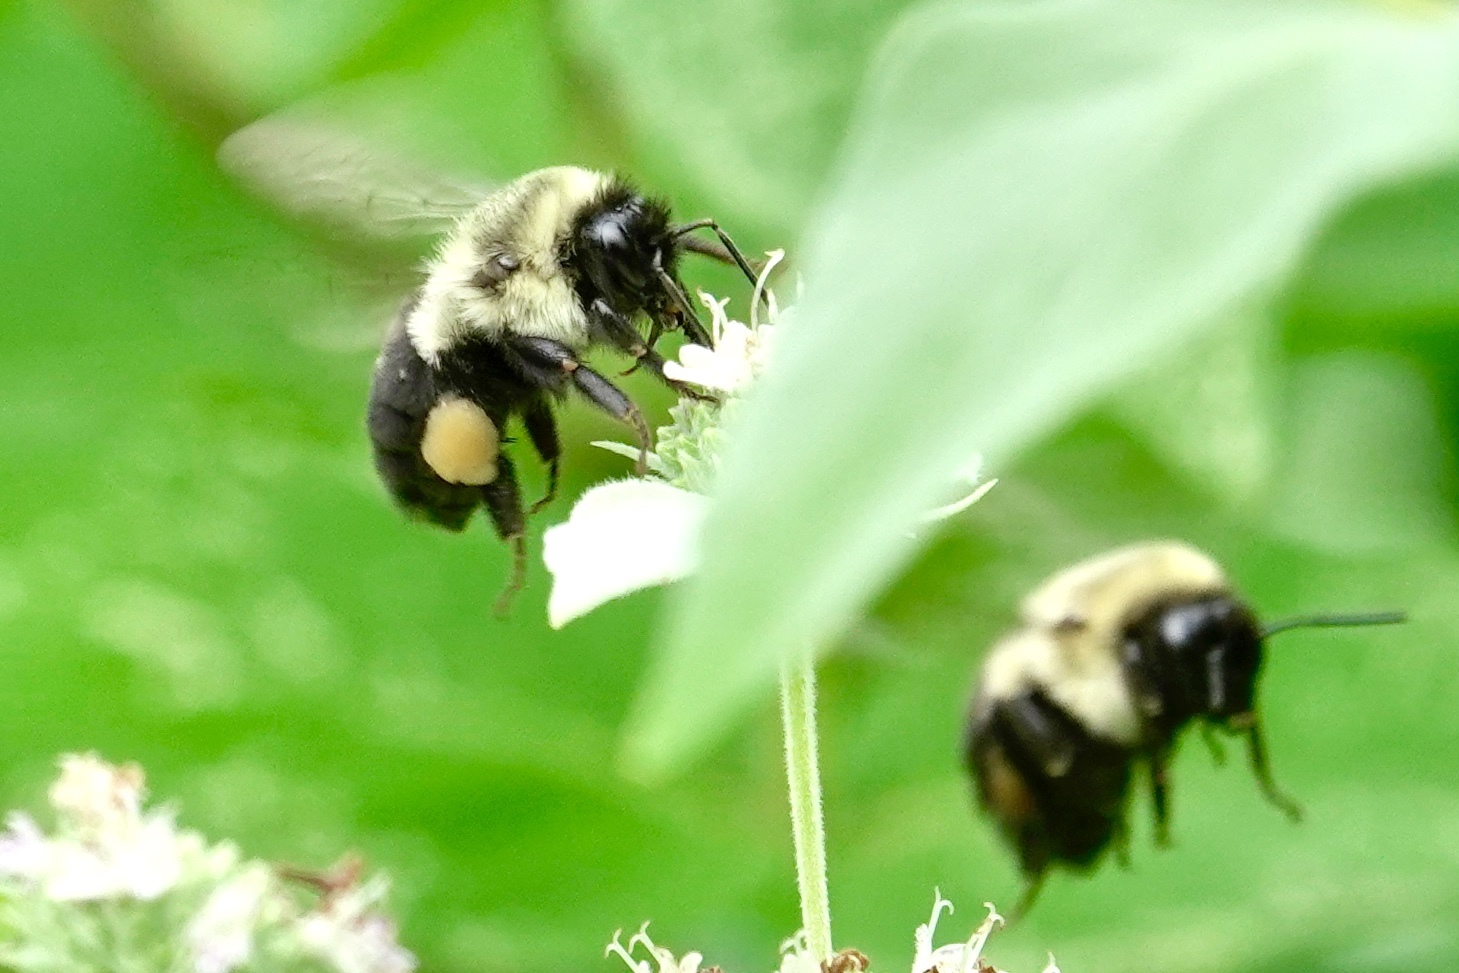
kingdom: Animalia
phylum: Arthropoda
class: Insecta
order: Hymenoptera
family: Apidae
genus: Bombus
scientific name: Bombus impatiens
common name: Common eastern bumble bee
